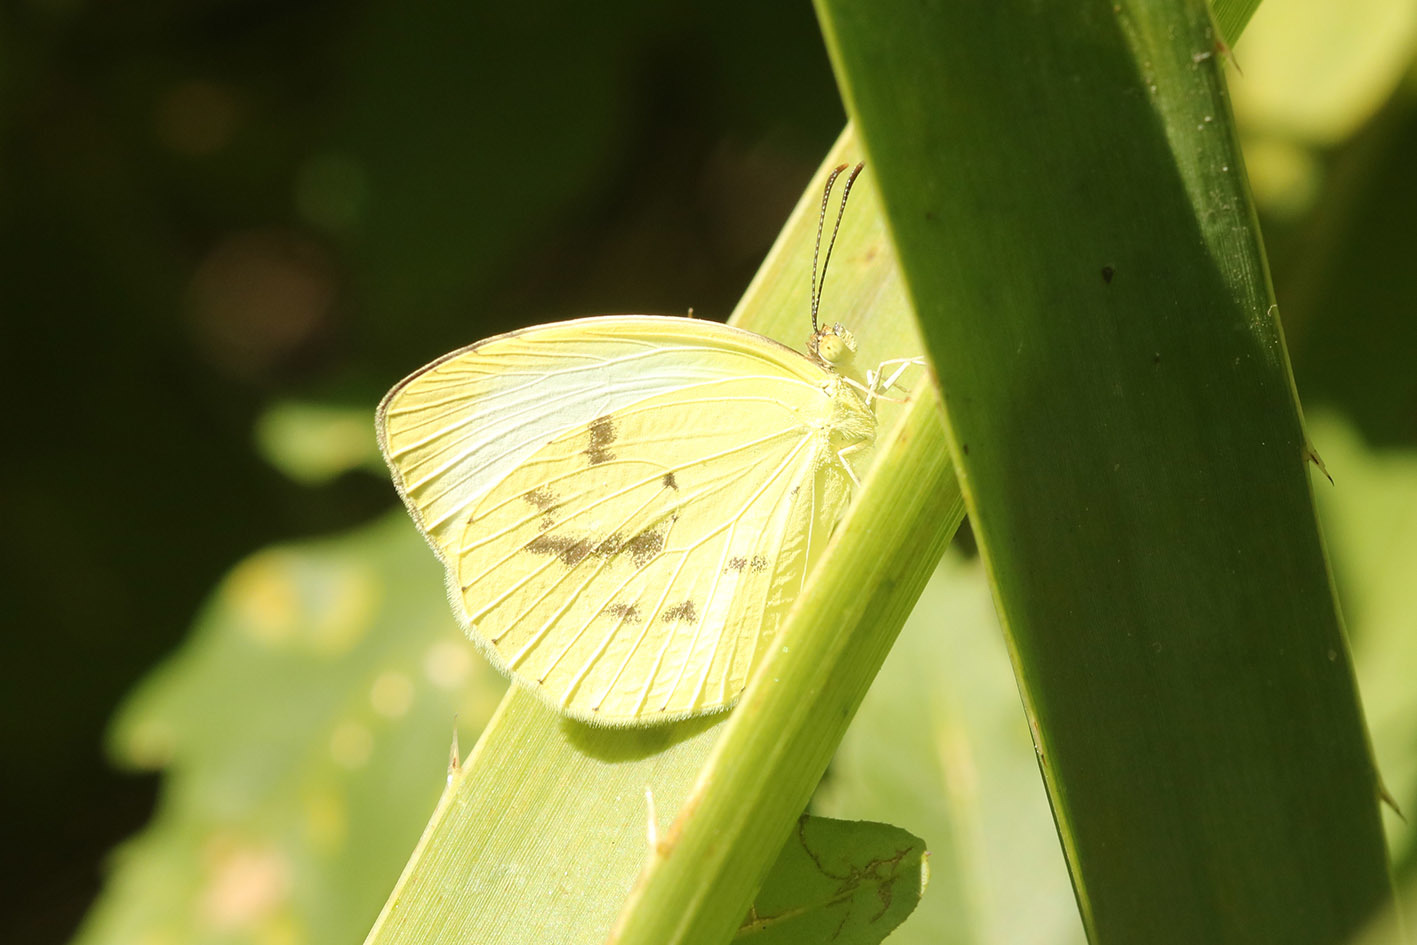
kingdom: Animalia
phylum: Arthropoda
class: Insecta
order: Lepidoptera
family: Pieridae
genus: Abaeis
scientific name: Abaeis albula
